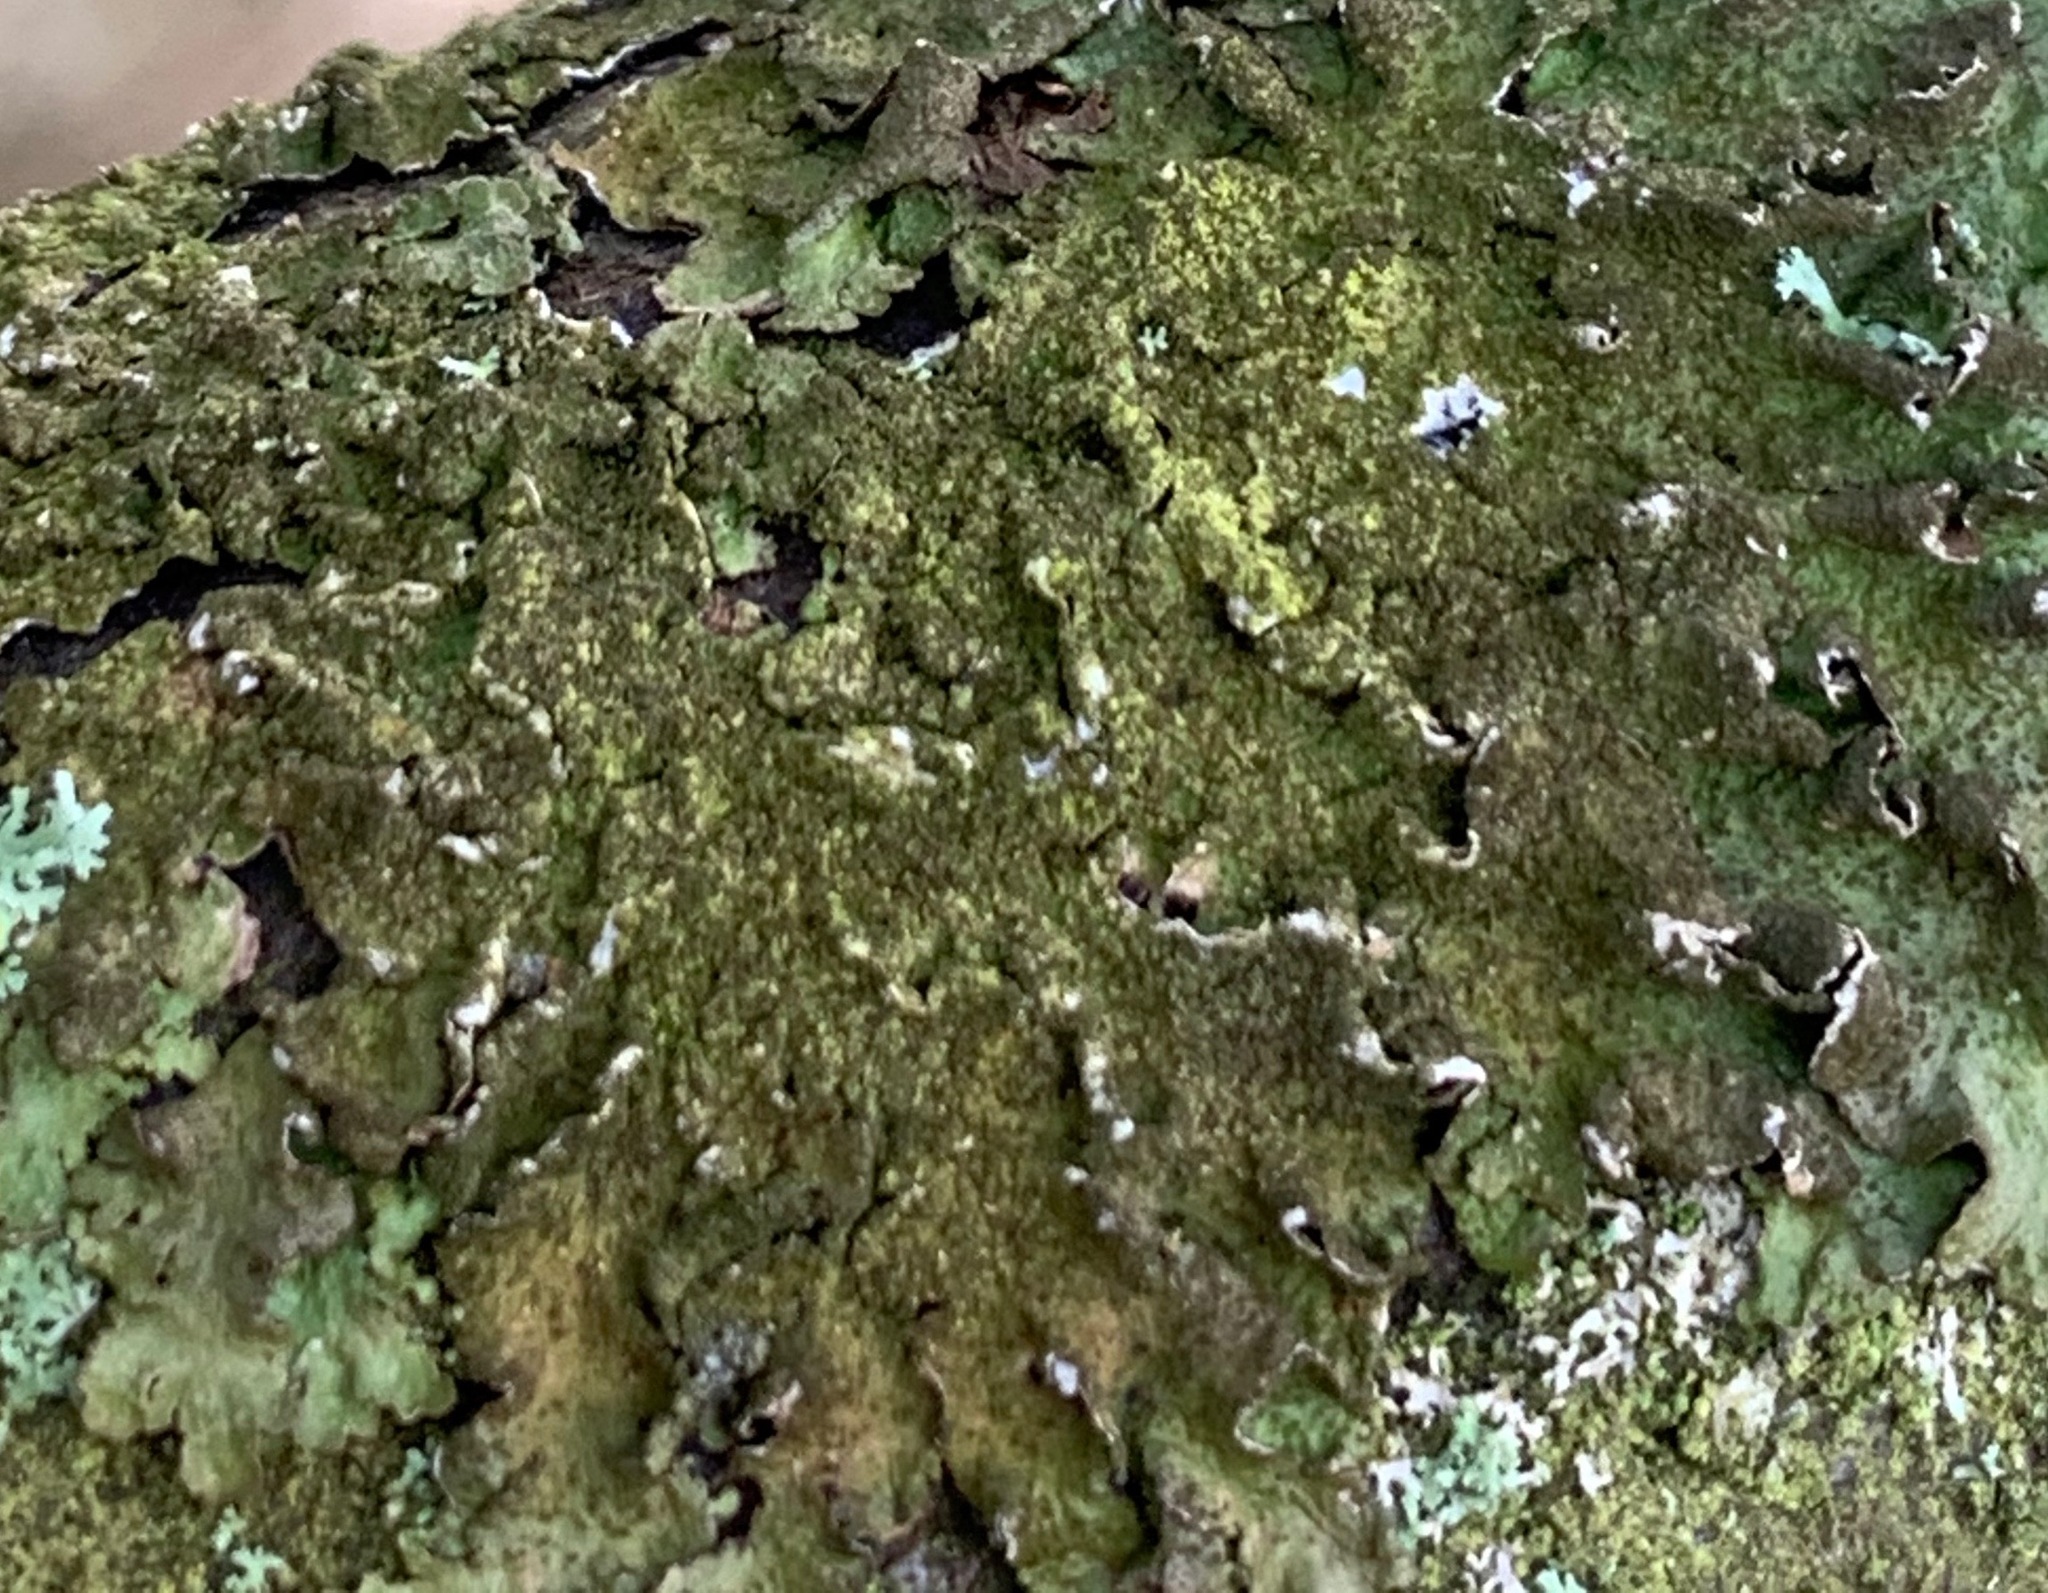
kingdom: Fungi
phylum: Ascomycota
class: Lecanoromycetes
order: Lecanorales
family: Parmeliaceae
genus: Melanelixia
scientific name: Melanelixia subaurifera
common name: Abraded camouflage lichen
